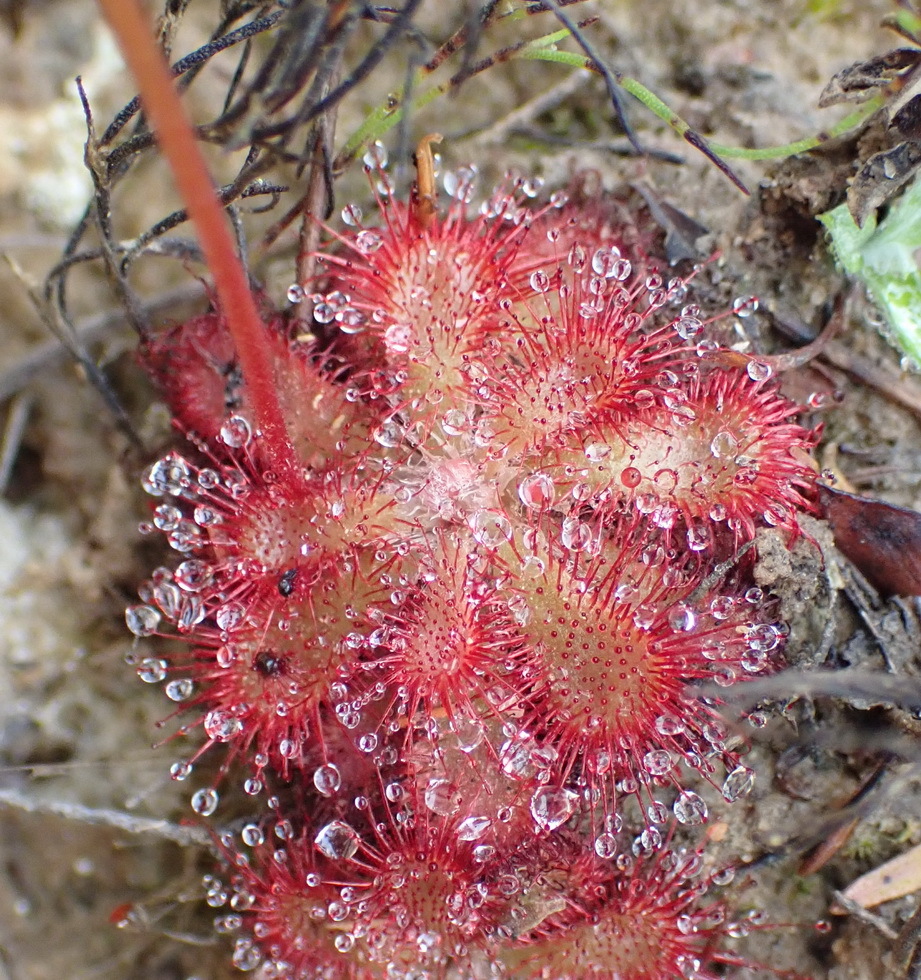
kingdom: Plantae
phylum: Tracheophyta
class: Magnoliopsida
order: Caryophyllales
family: Droseraceae
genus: Drosera
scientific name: Drosera aliciae
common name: Alice sundew
